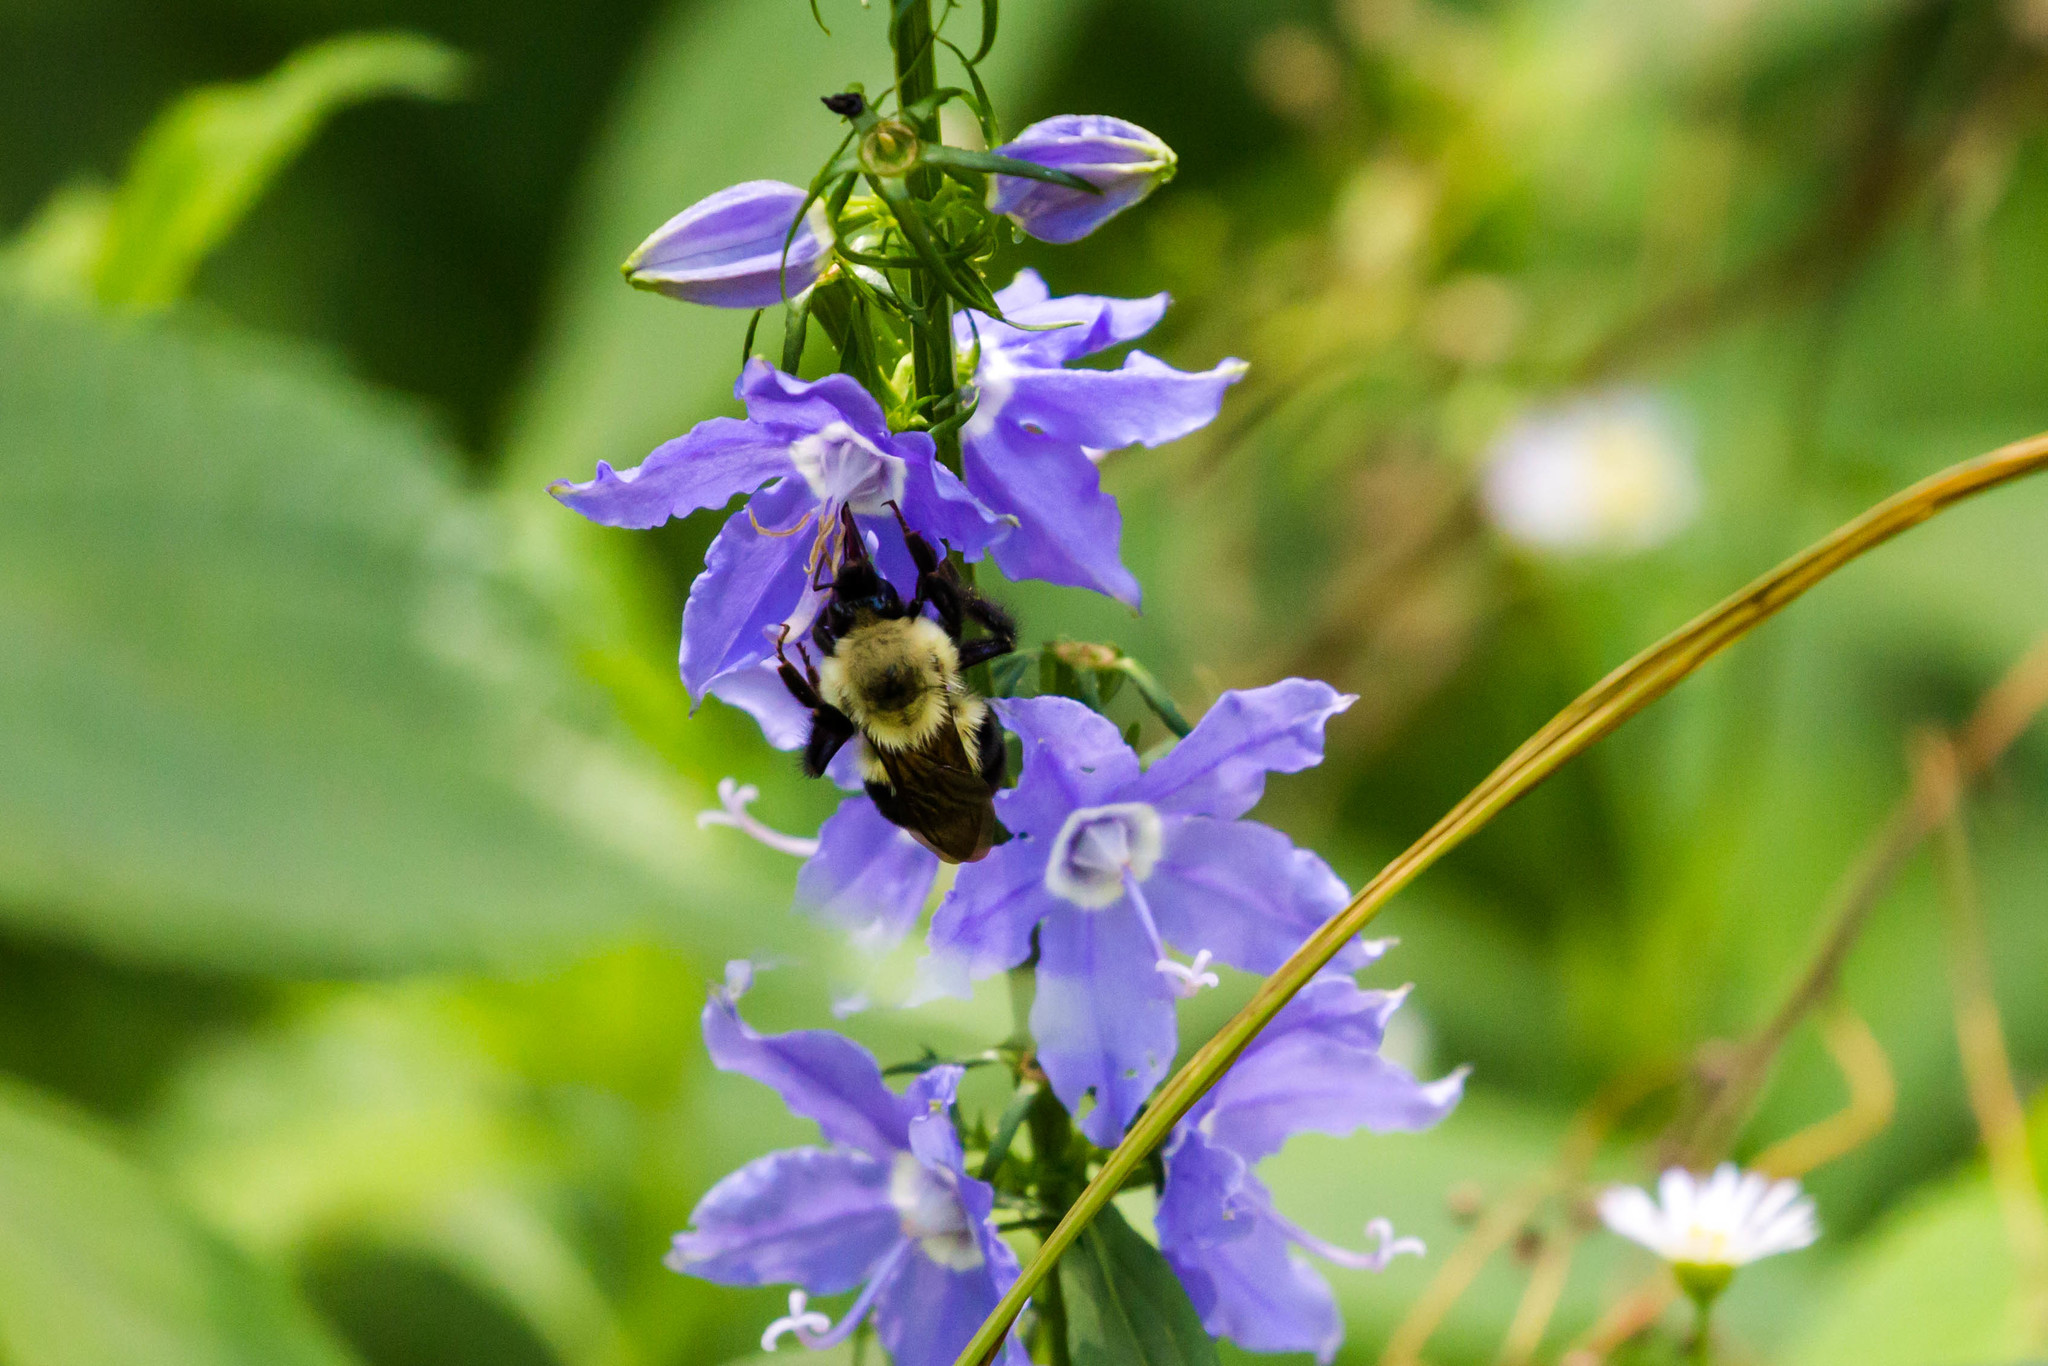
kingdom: Animalia
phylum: Arthropoda
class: Insecta
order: Hymenoptera
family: Apidae
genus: Bombus
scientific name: Bombus bimaculatus
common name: Two-spotted bumble bee
